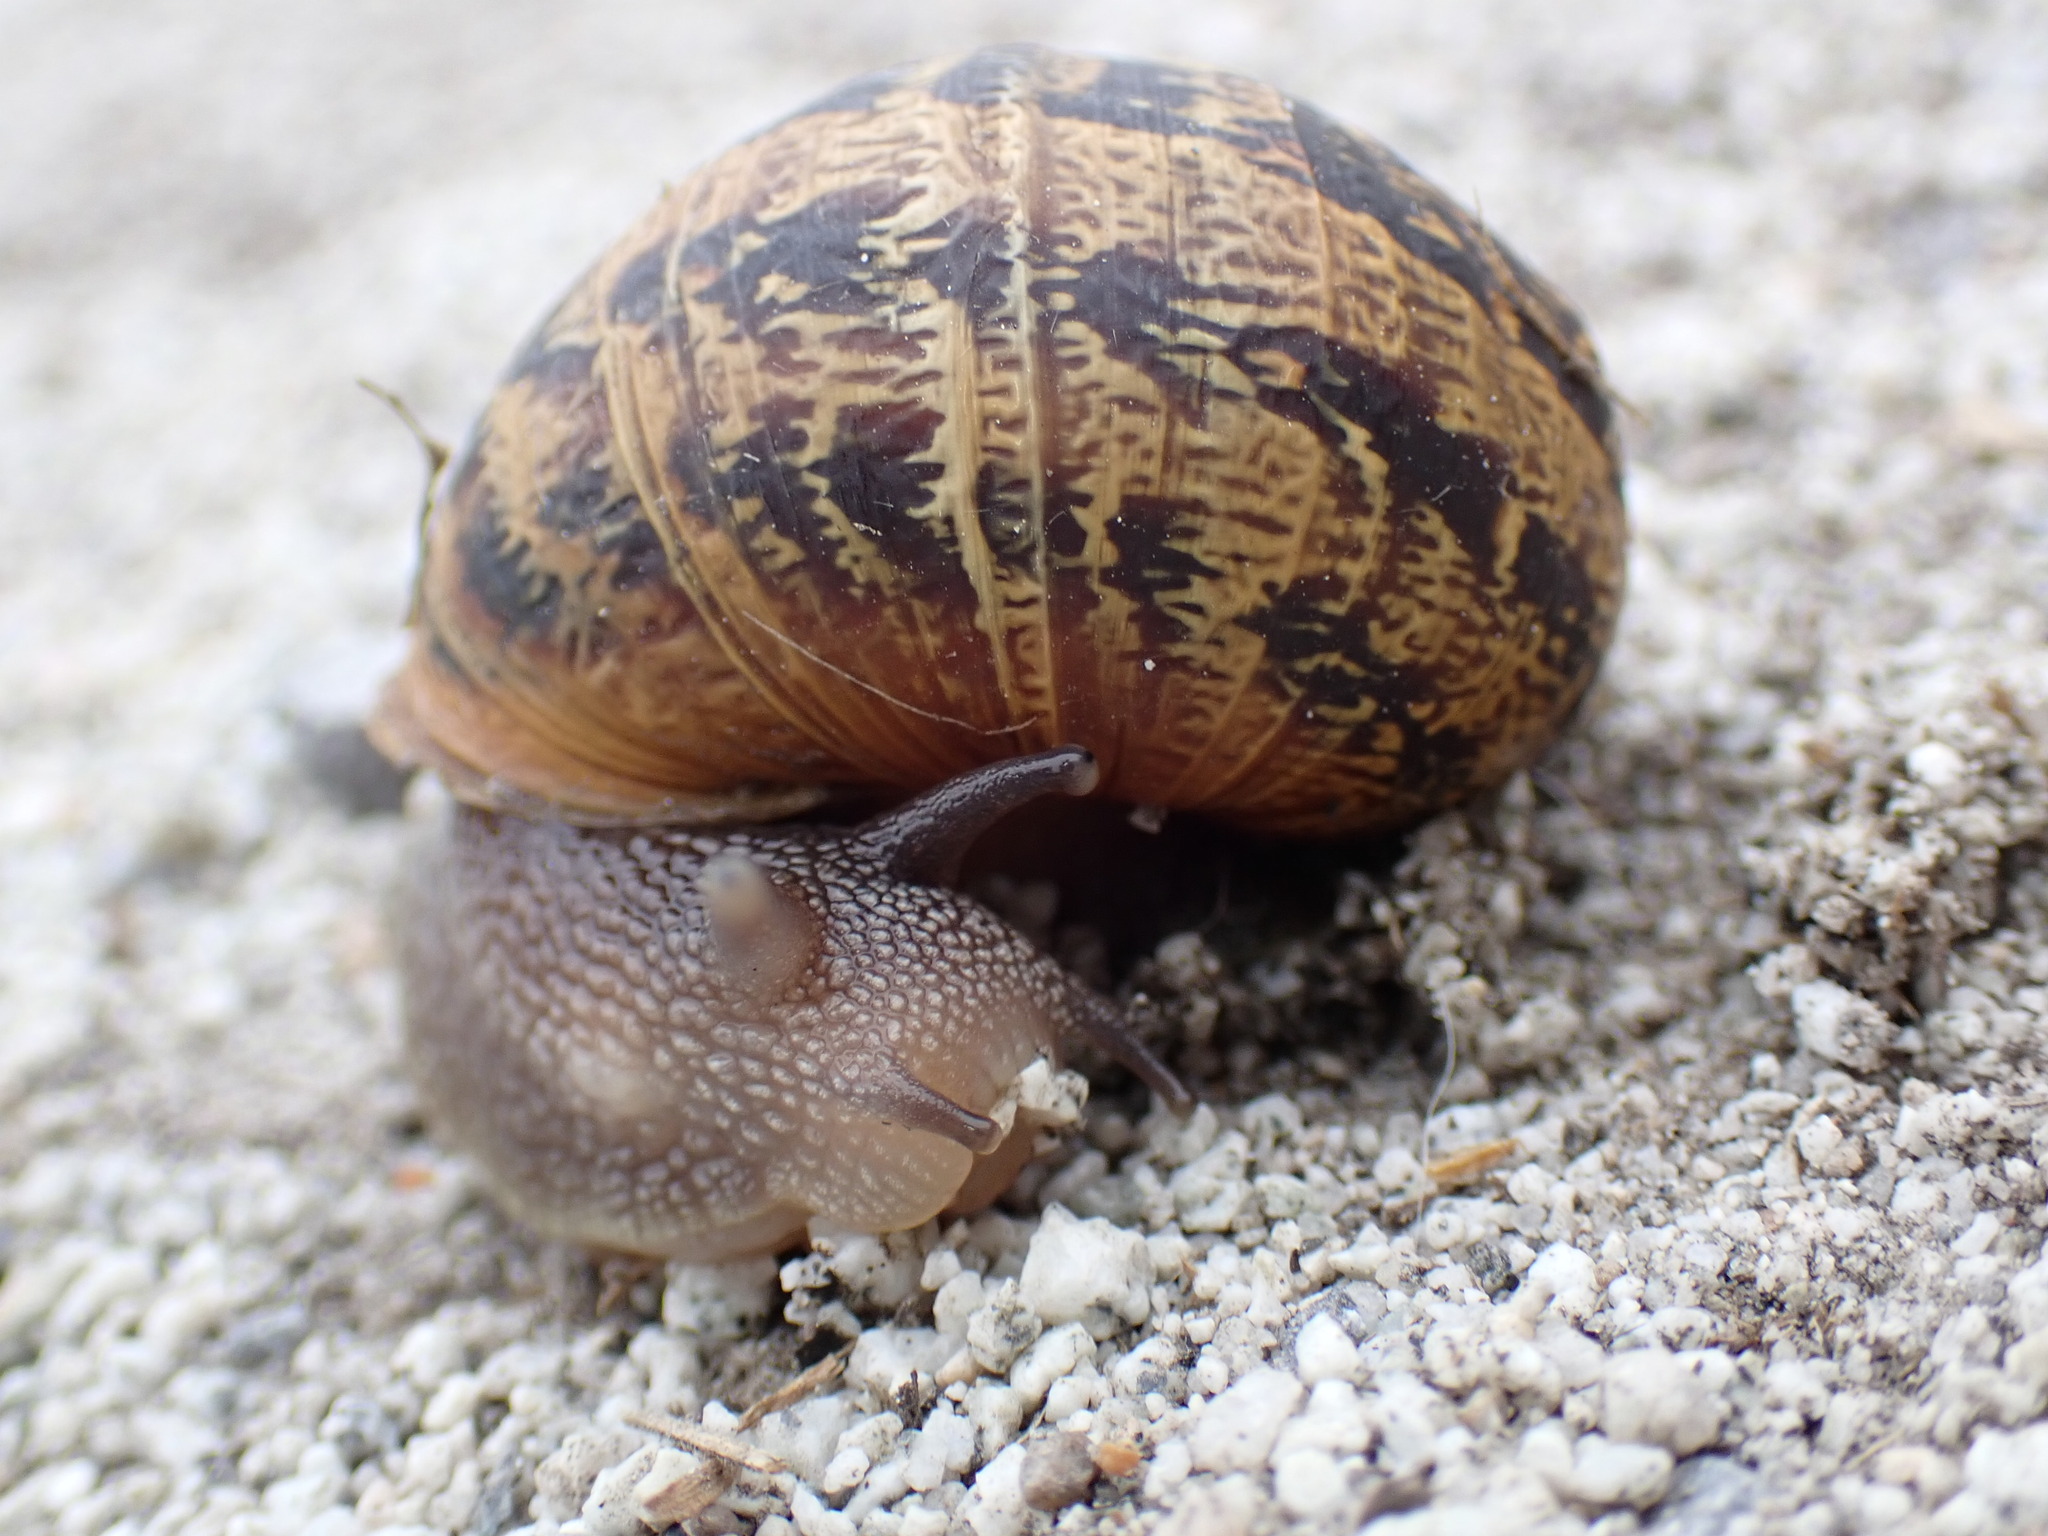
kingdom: Animalia
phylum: Mollusca
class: Gastropoda
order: Stylommatophora
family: Helicidae
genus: Cornu
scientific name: Cornu aspersum
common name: Brown garden snail
